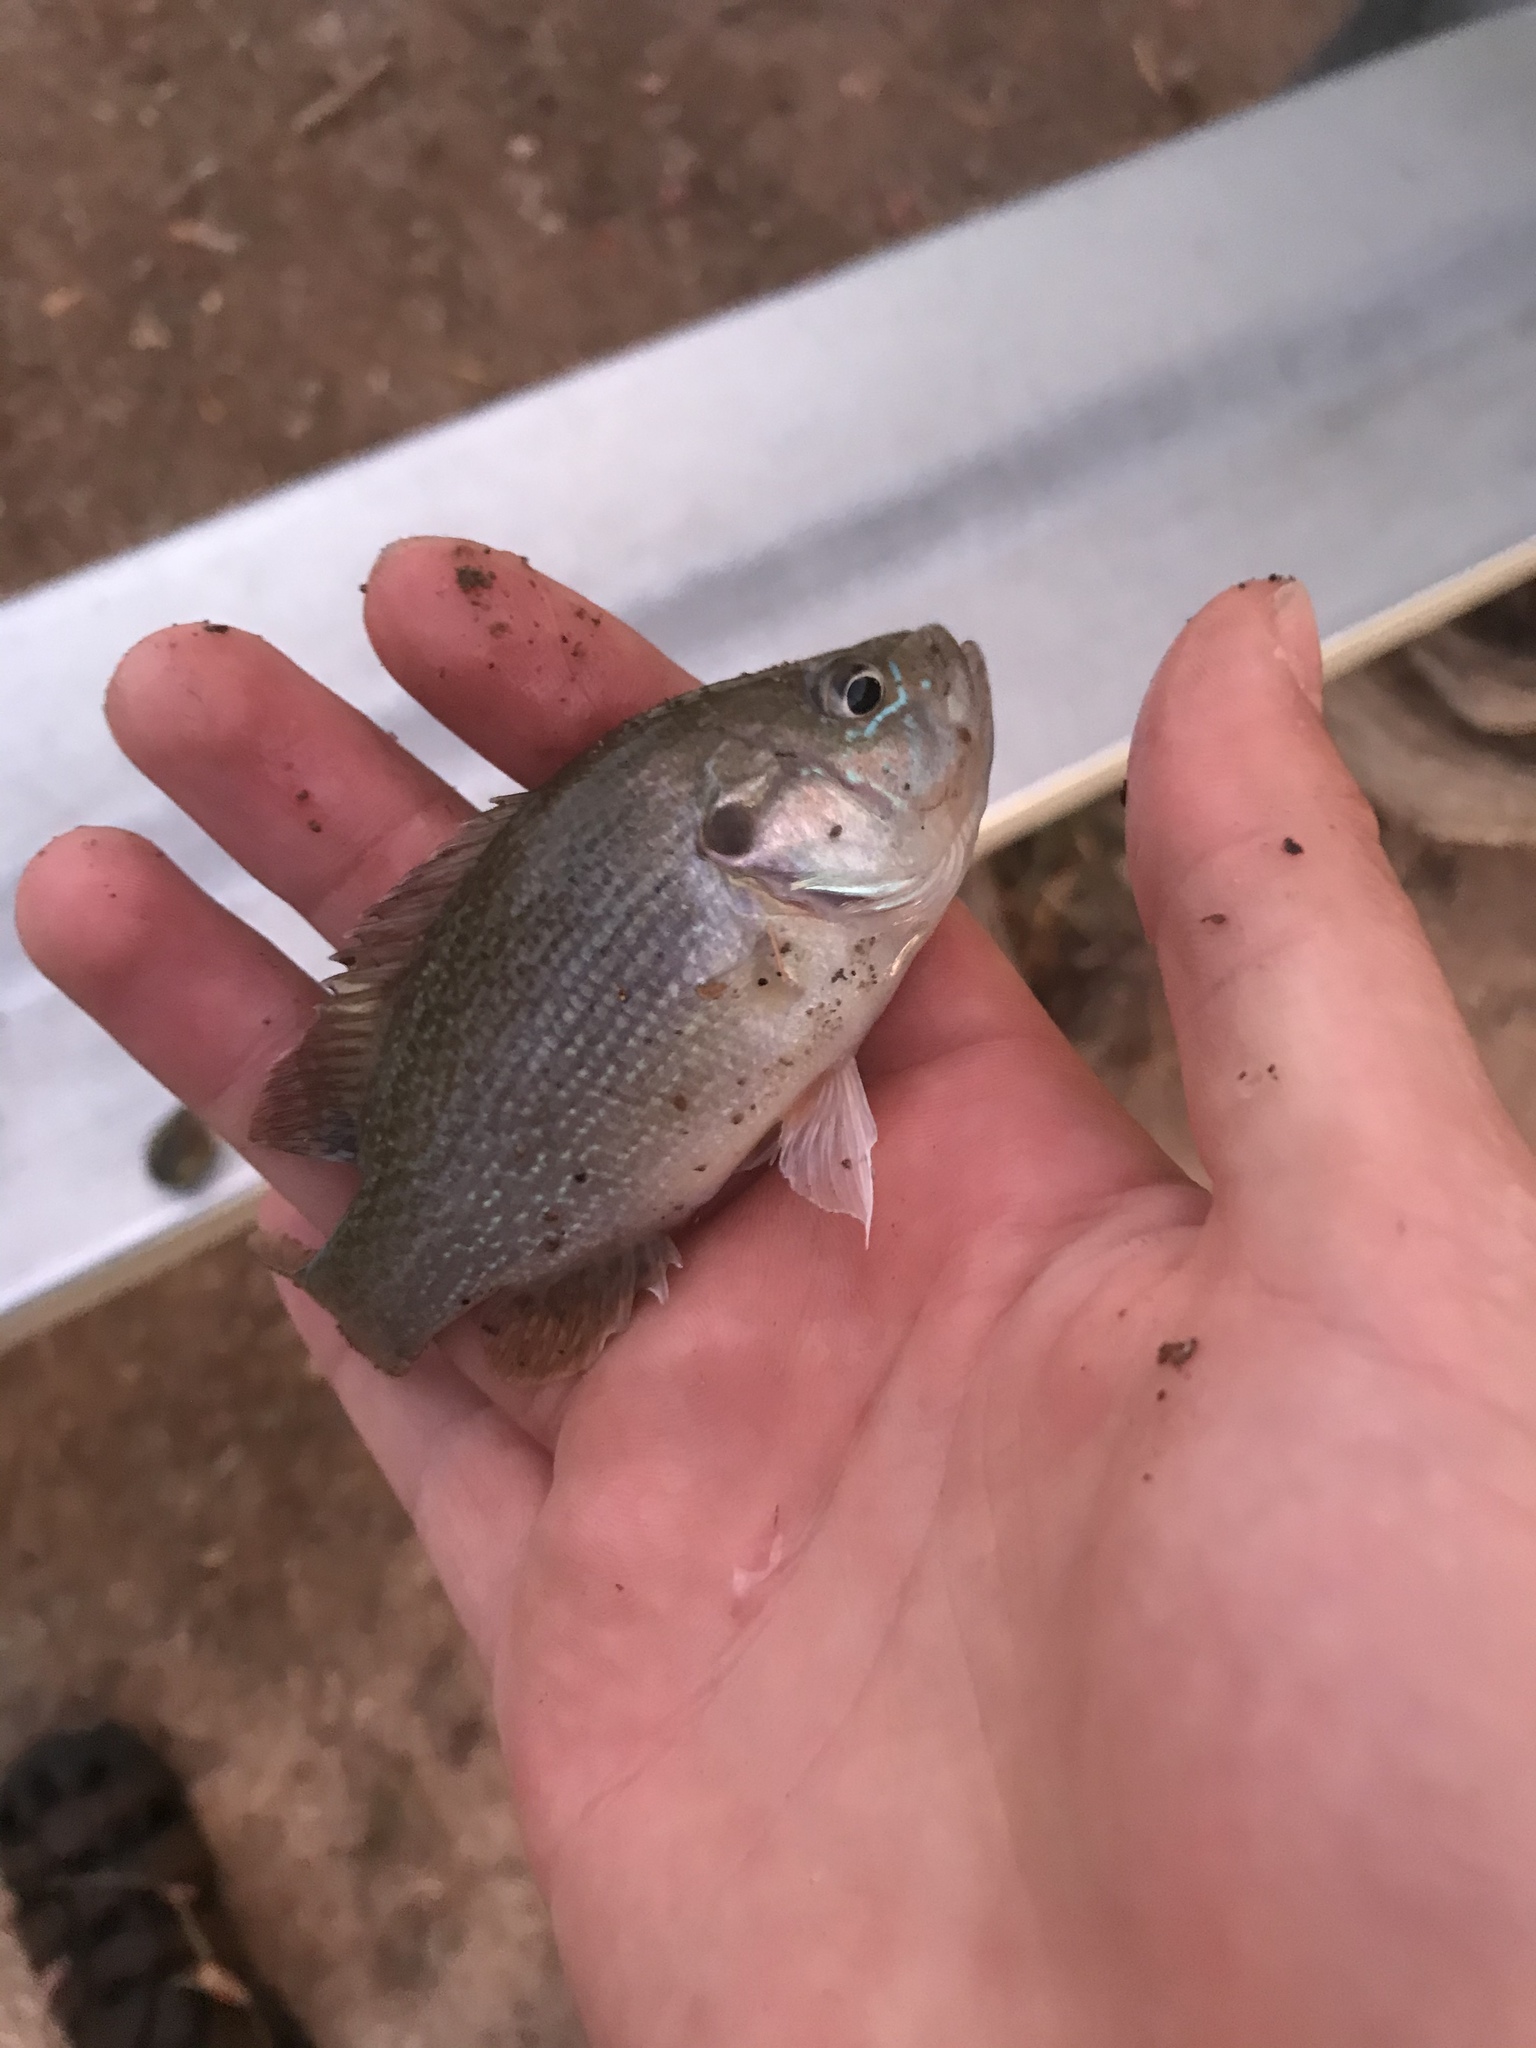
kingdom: Animalia
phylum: Chordata
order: Perciformes
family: Centrarchidae
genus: Lepomis
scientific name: Lepomis cyanellus
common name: Green sunfish
